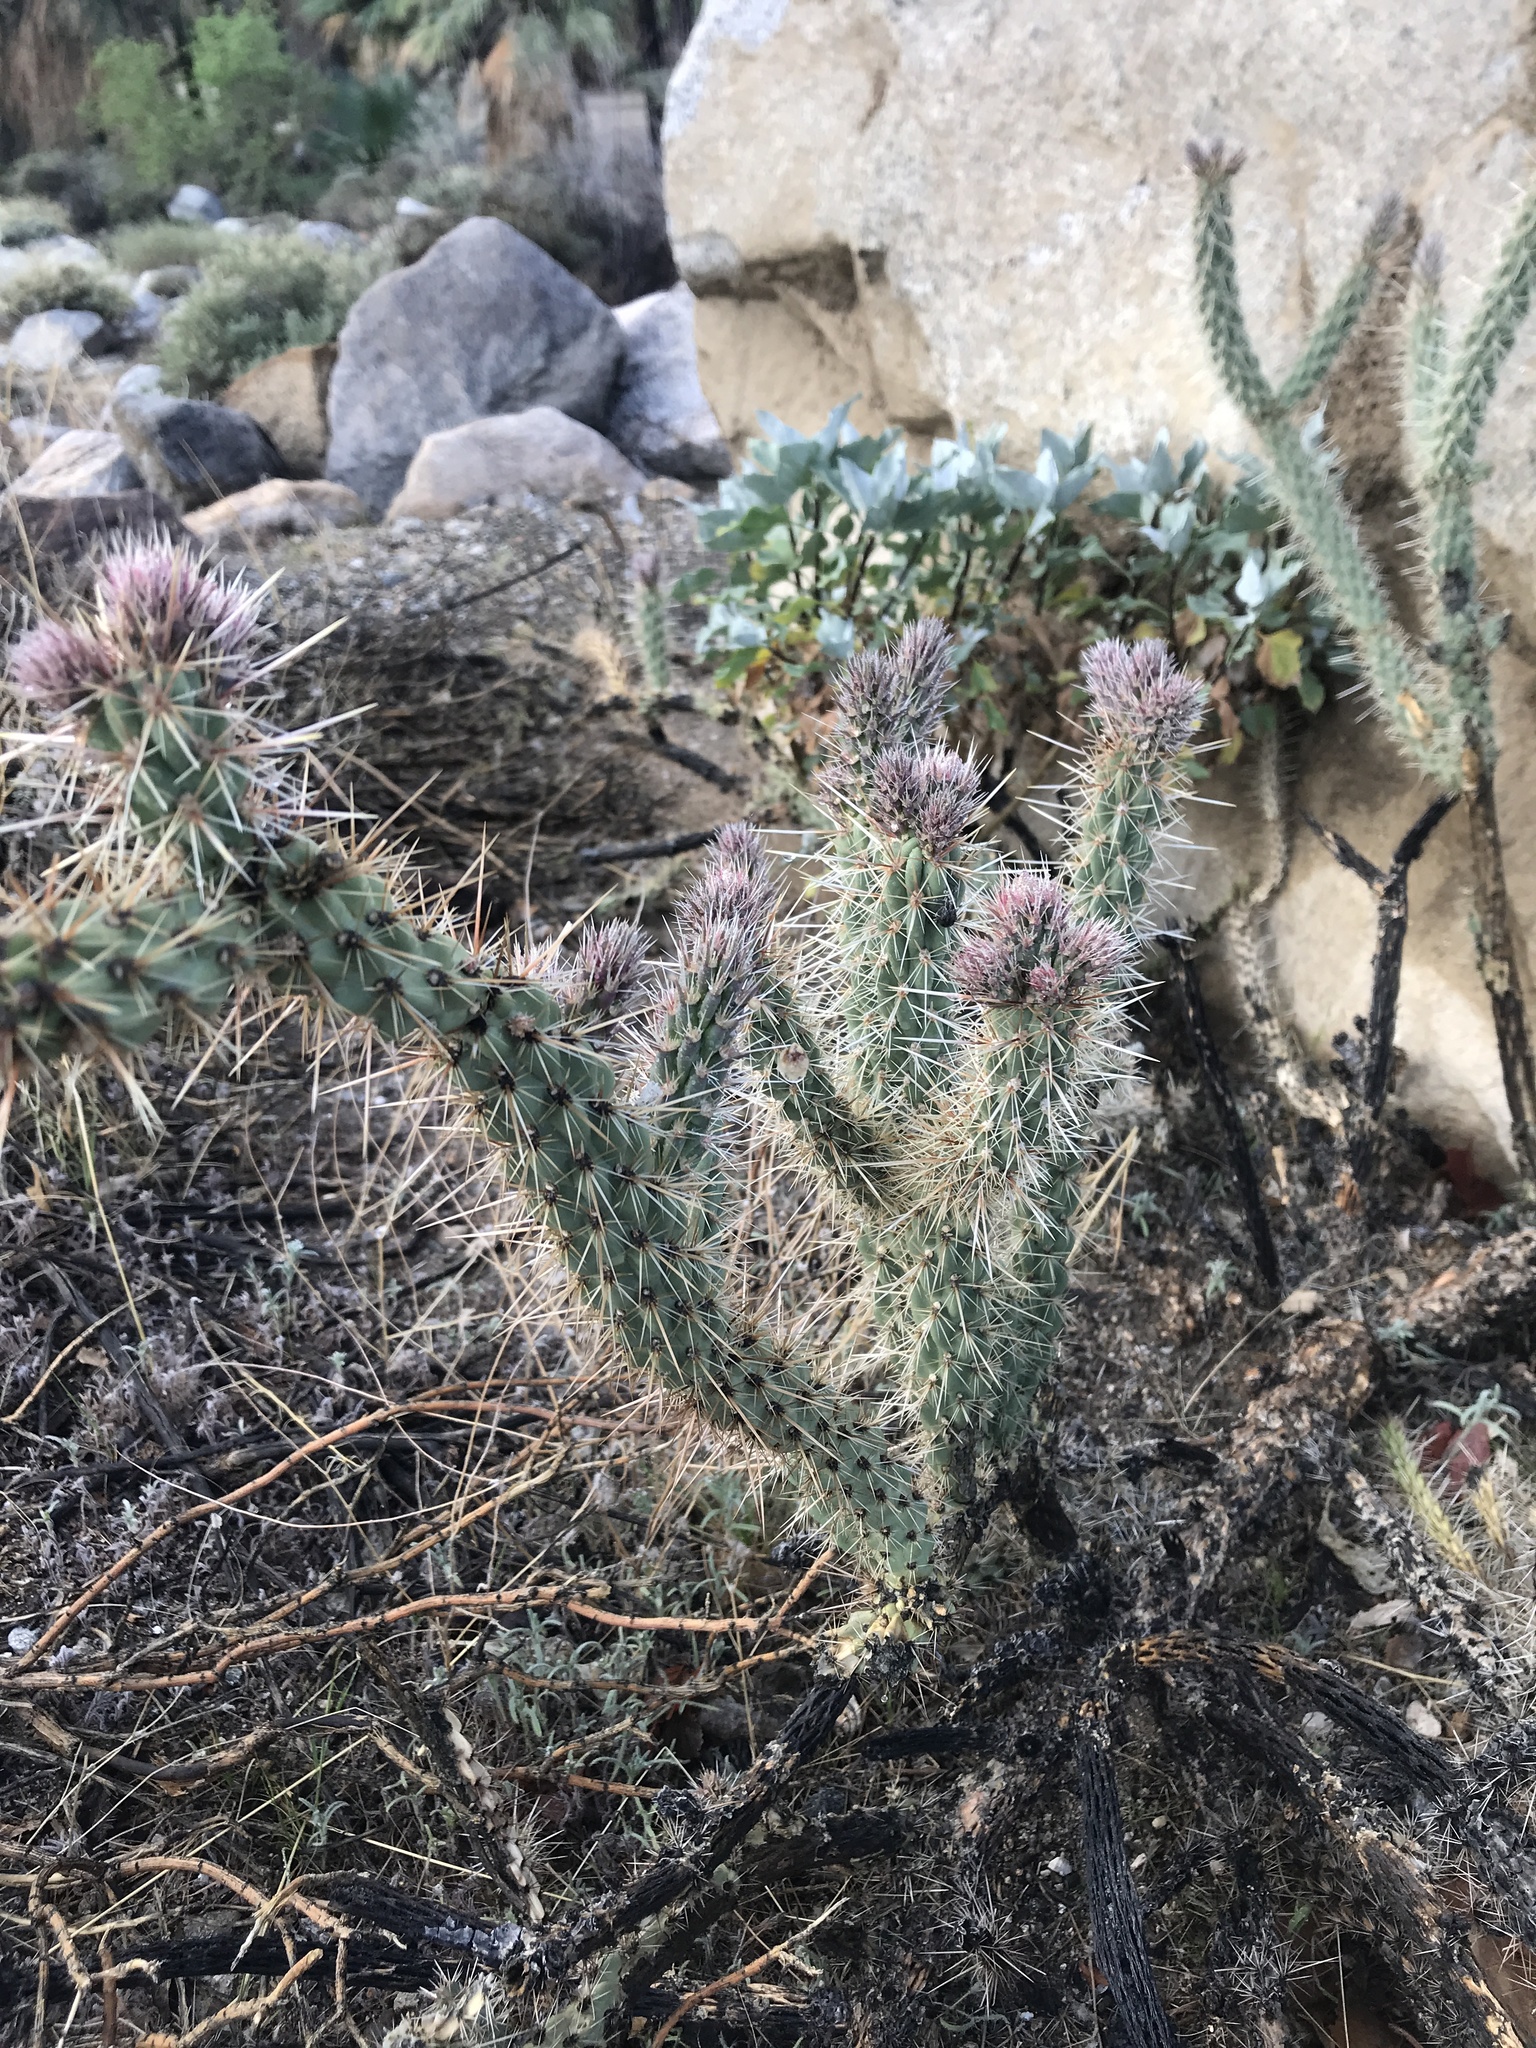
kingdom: Plantae
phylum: Tracheophyta
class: Magnoliopsida
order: Caryophyllales
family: Cactaceae
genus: Cylindropuntia
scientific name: Cylindropuntia ganderi
